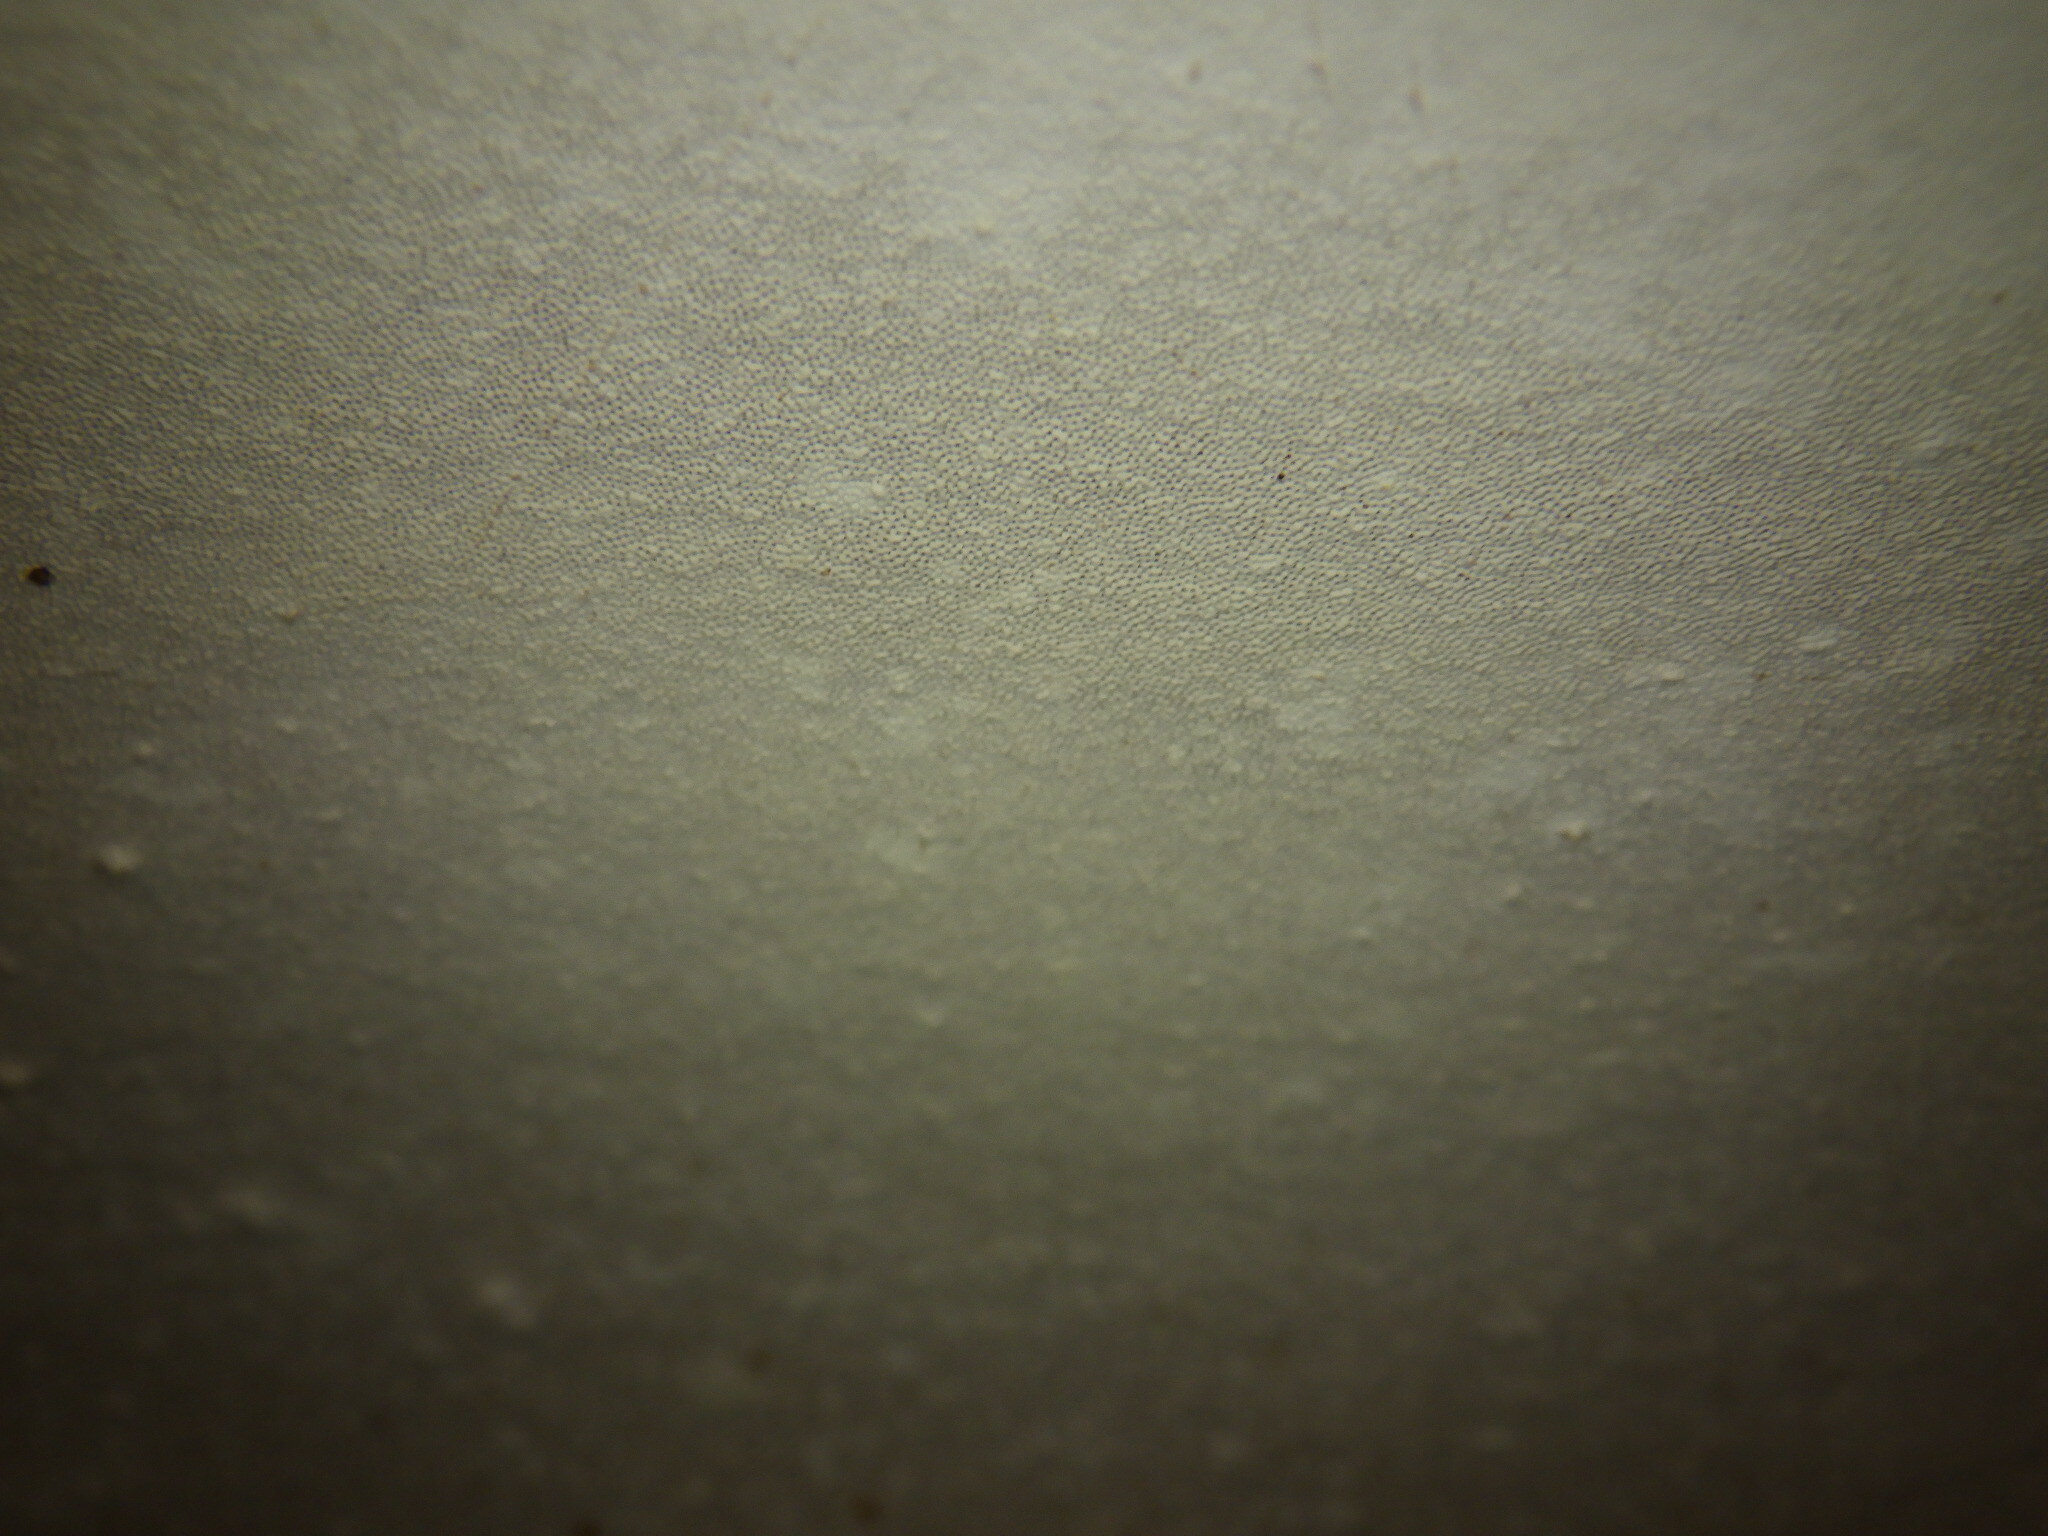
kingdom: Fungi
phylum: Basidiomycota
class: Agaricomycetes
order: Polyporales
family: Polyporaceae
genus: Ganoderma
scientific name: Ganoderma applanatum
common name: Artist's bracket
